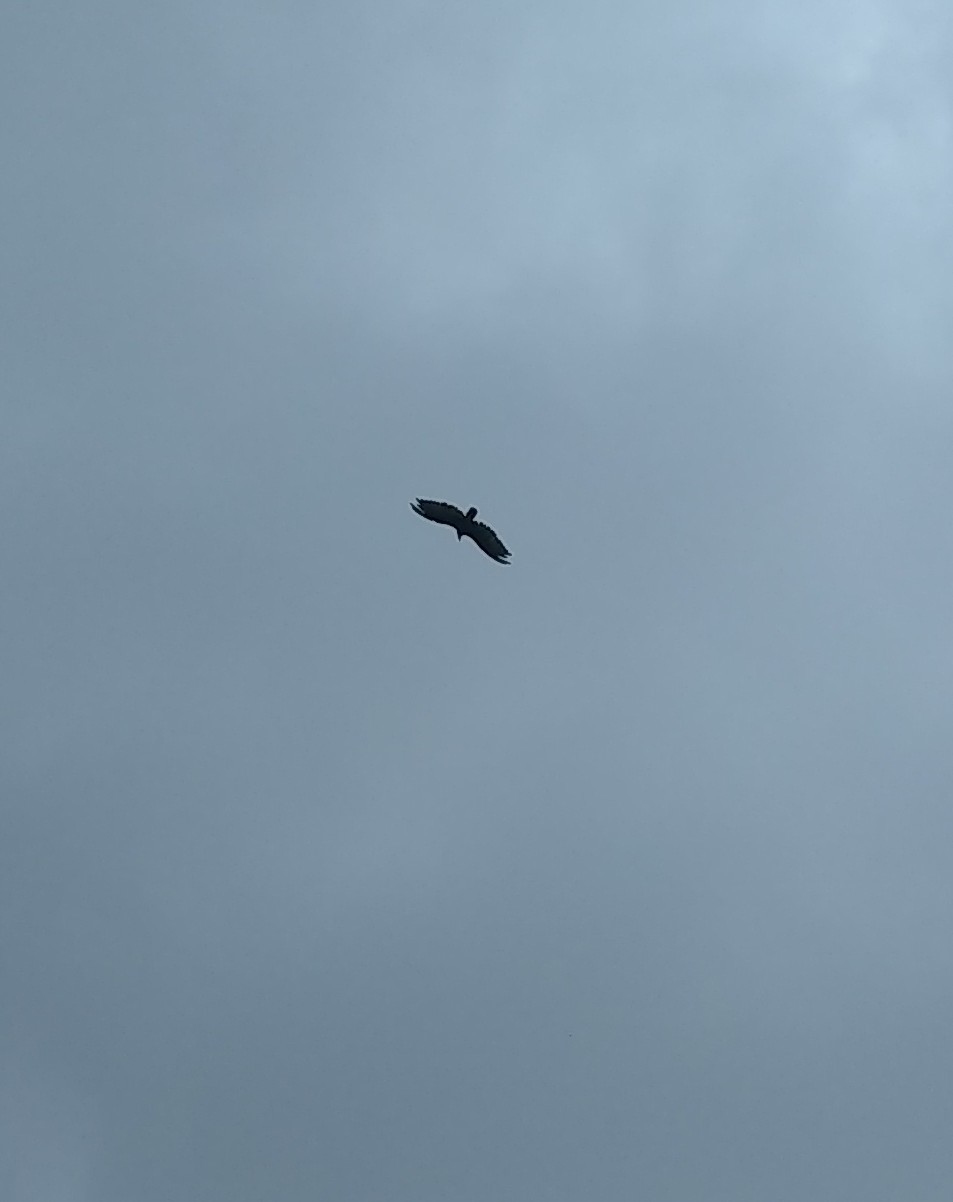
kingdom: Animalia
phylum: Chordata
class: Aves
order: Accipitriformes
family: Cathartidae
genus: Cathartes
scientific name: Cathartes aura
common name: Turkey vulture
